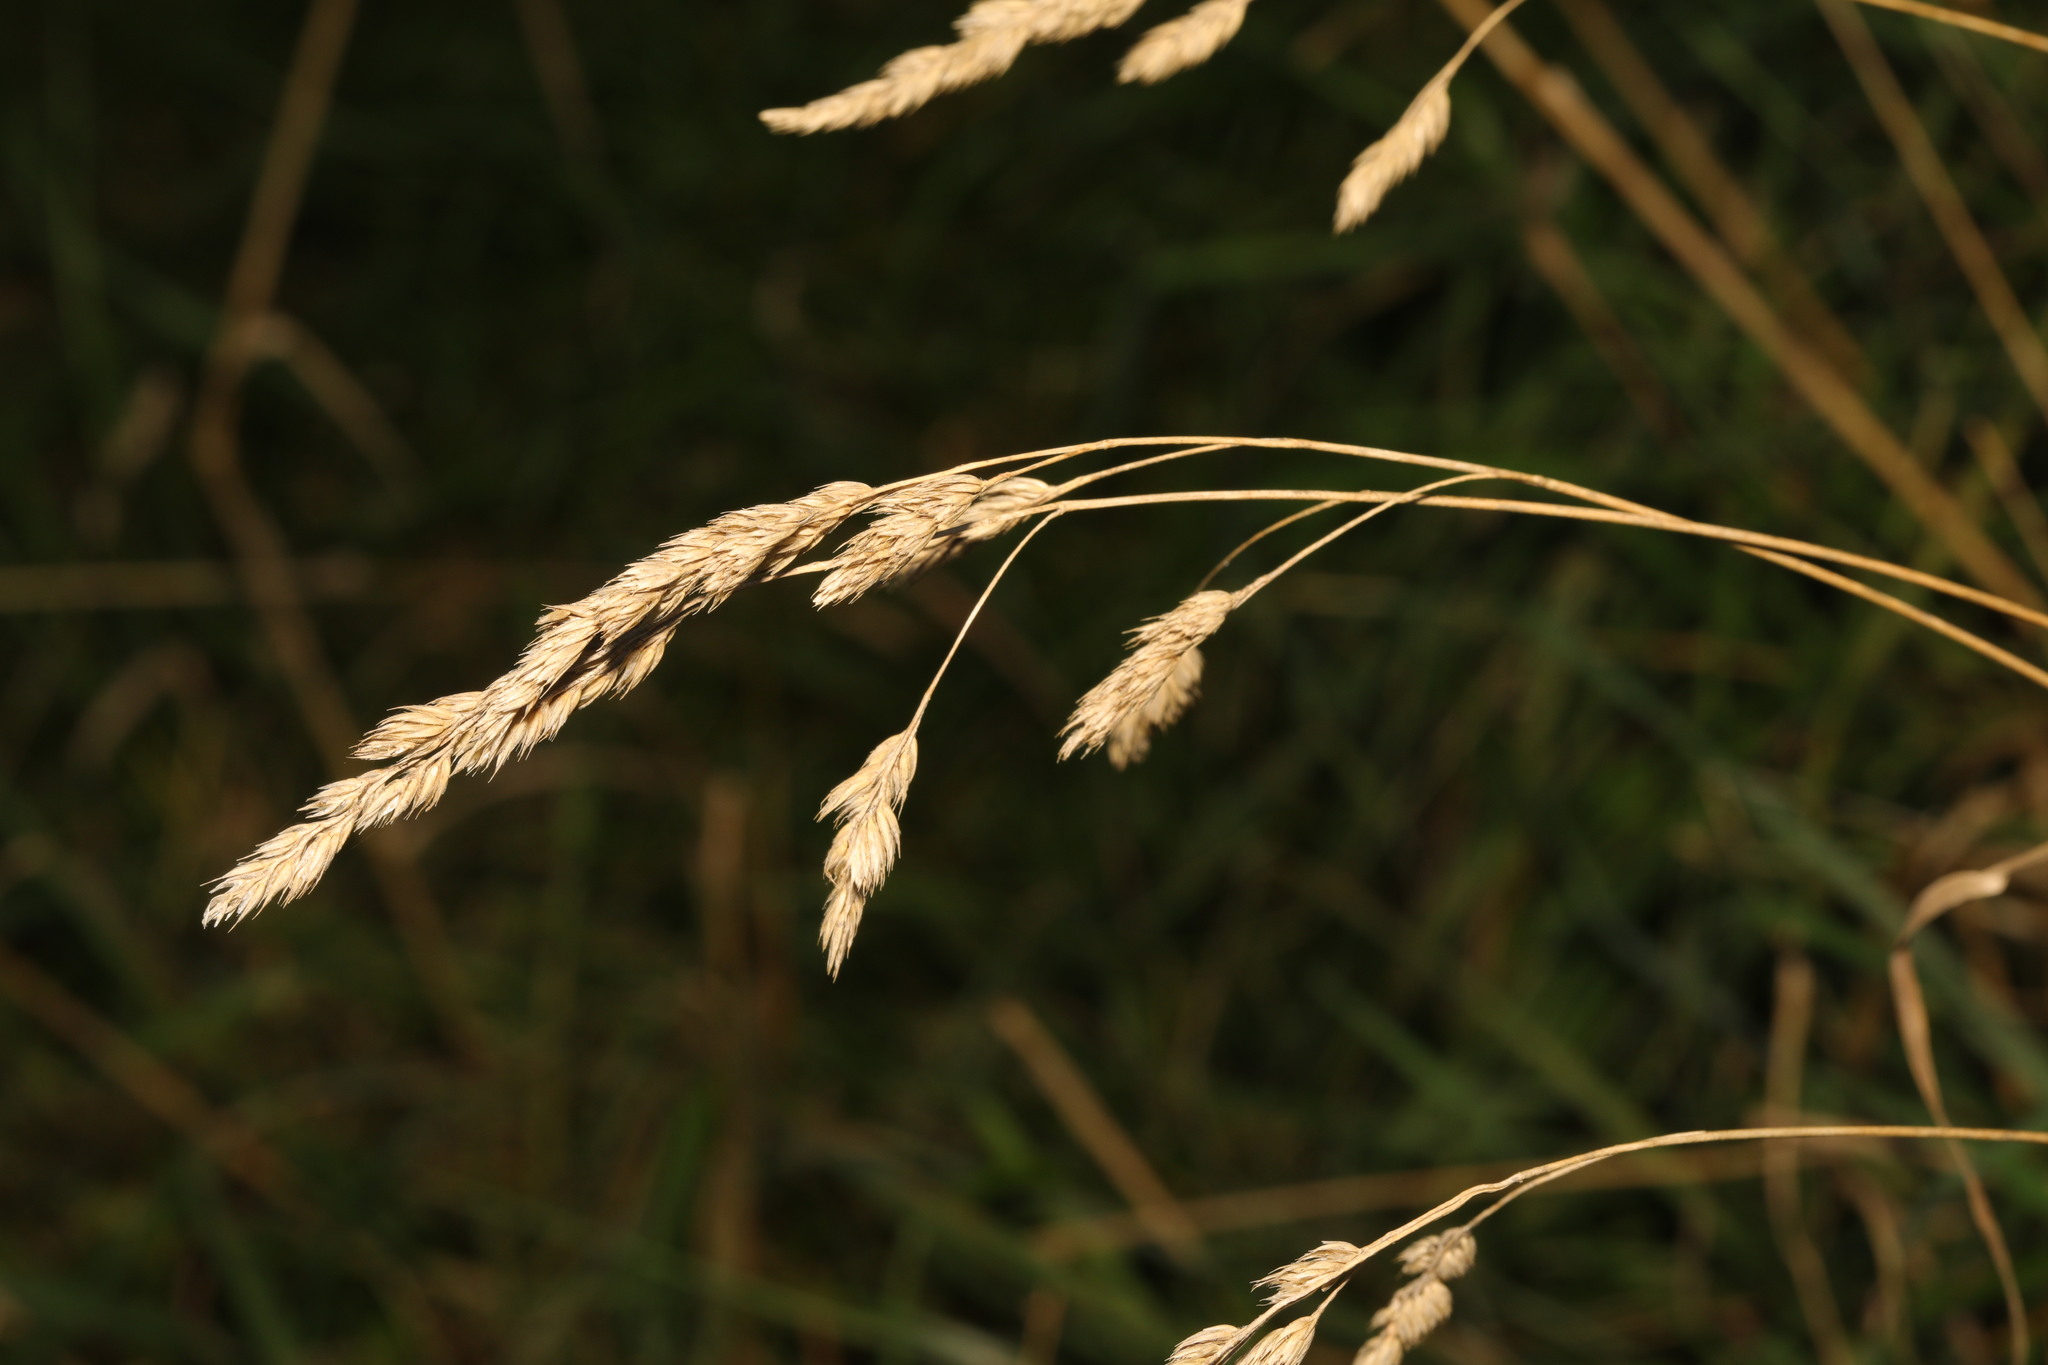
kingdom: Plantae
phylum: Tracheophyta
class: Liliopsida
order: Poales
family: Poaceae
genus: Dactylis
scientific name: Dactylis glomerata
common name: Orchardgrass
